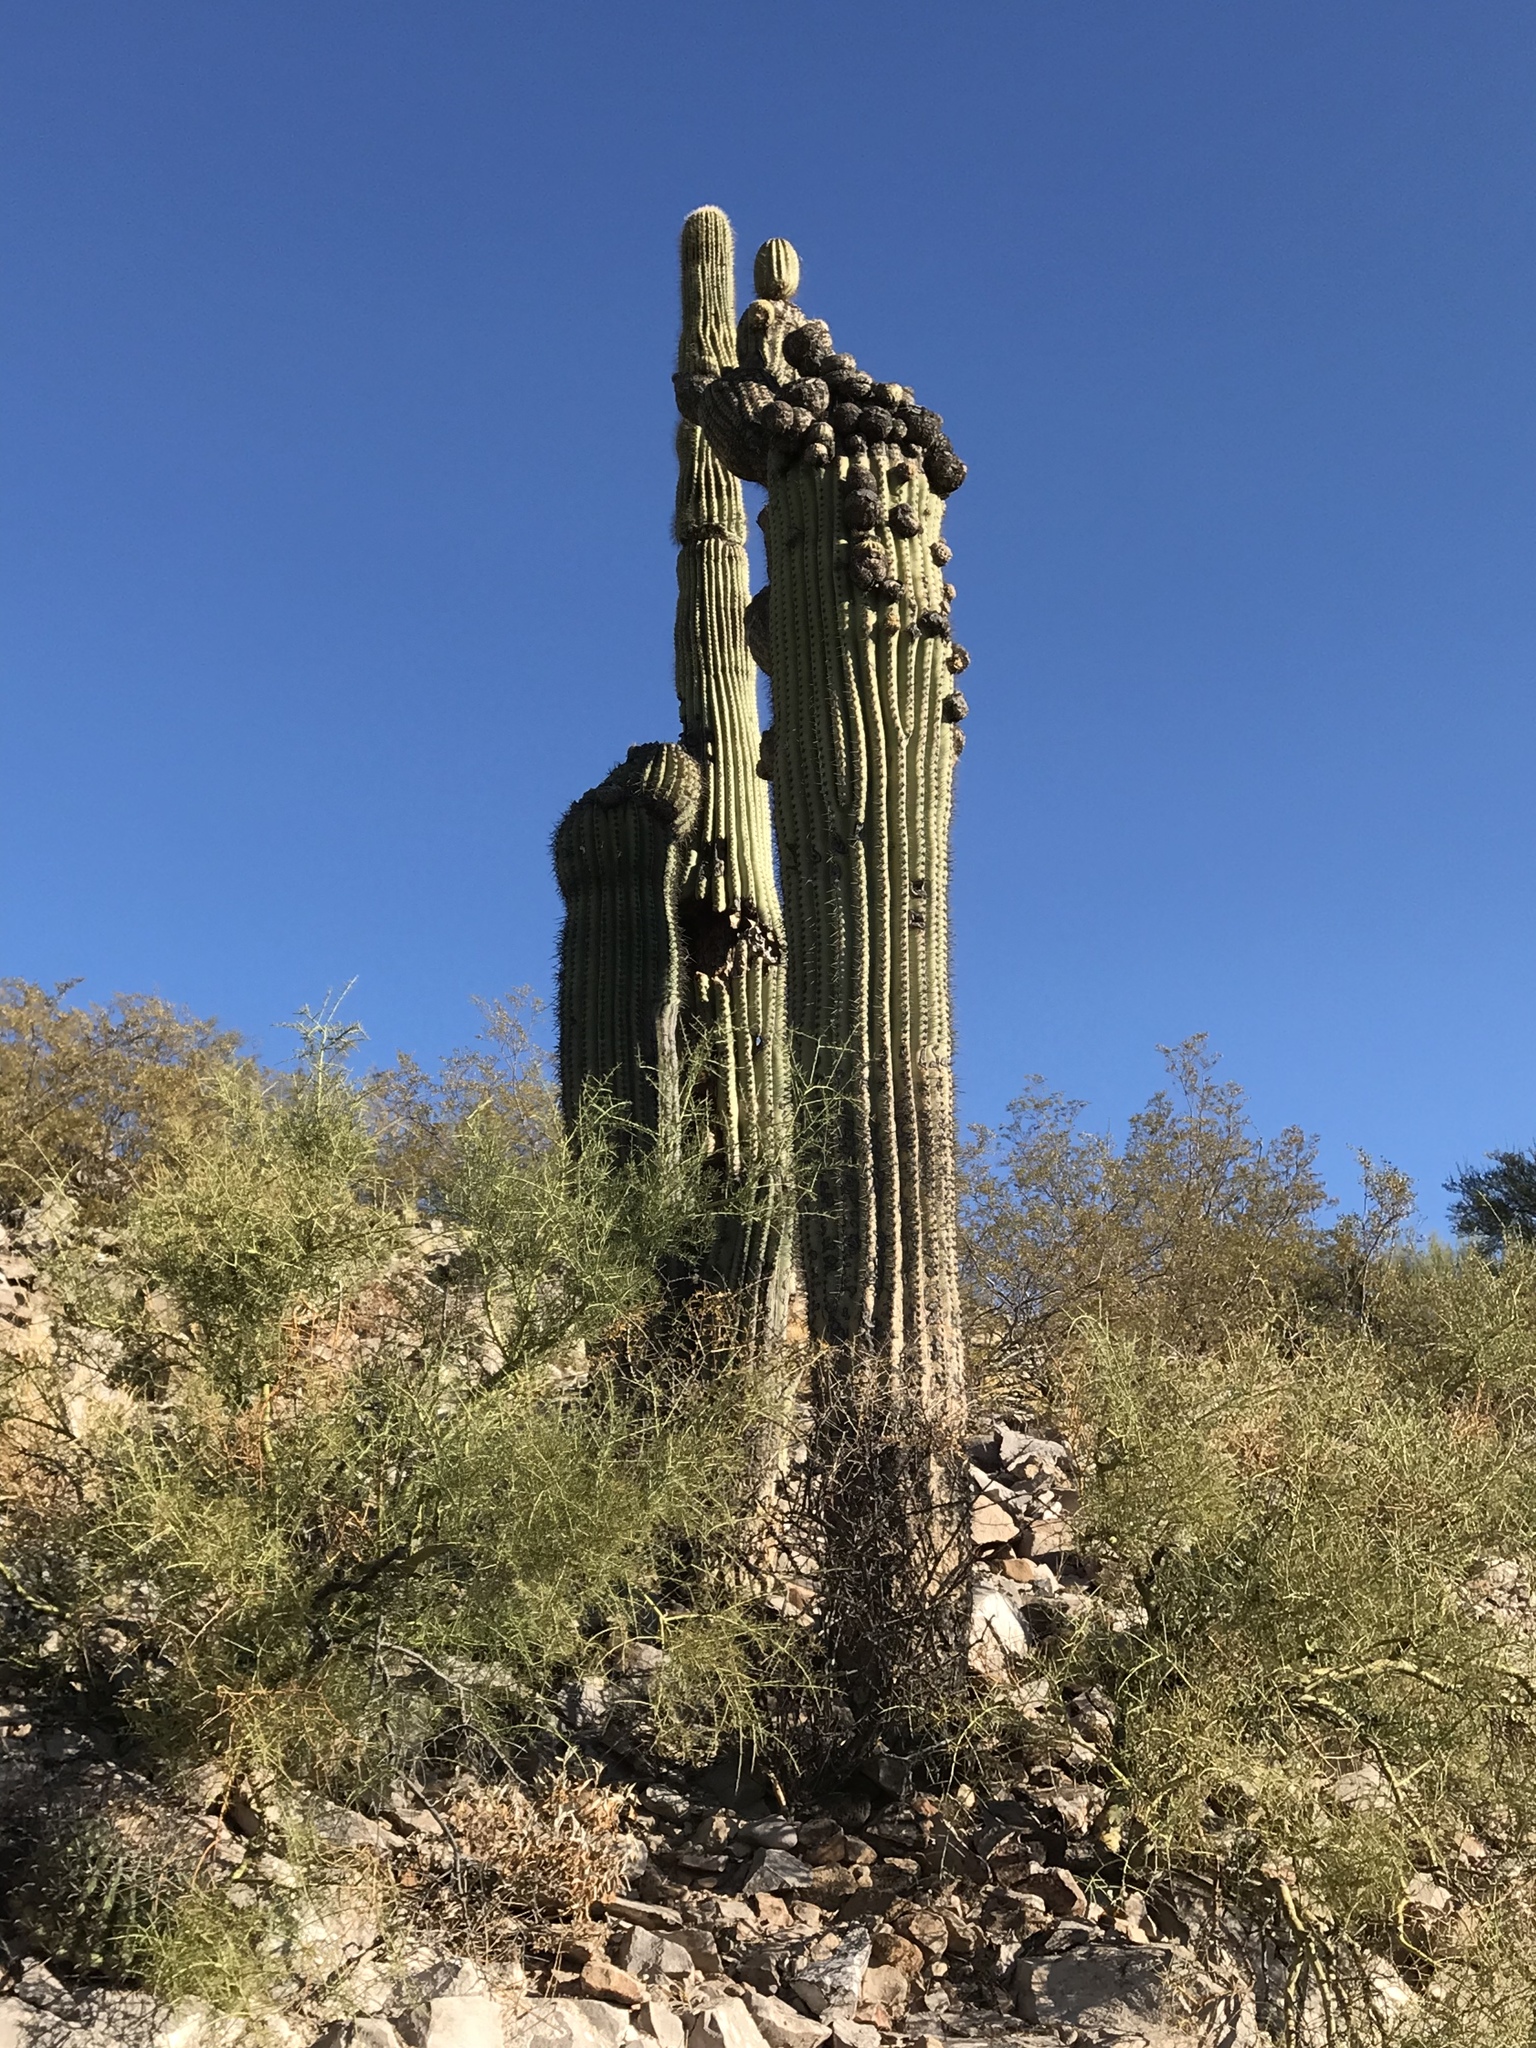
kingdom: Plantae
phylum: Tracheophyta
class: Magnoliopsida
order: Caryophyllales
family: Cactaceae
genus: Carnegiea
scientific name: Carnegiea gigantea
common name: Saguaro
